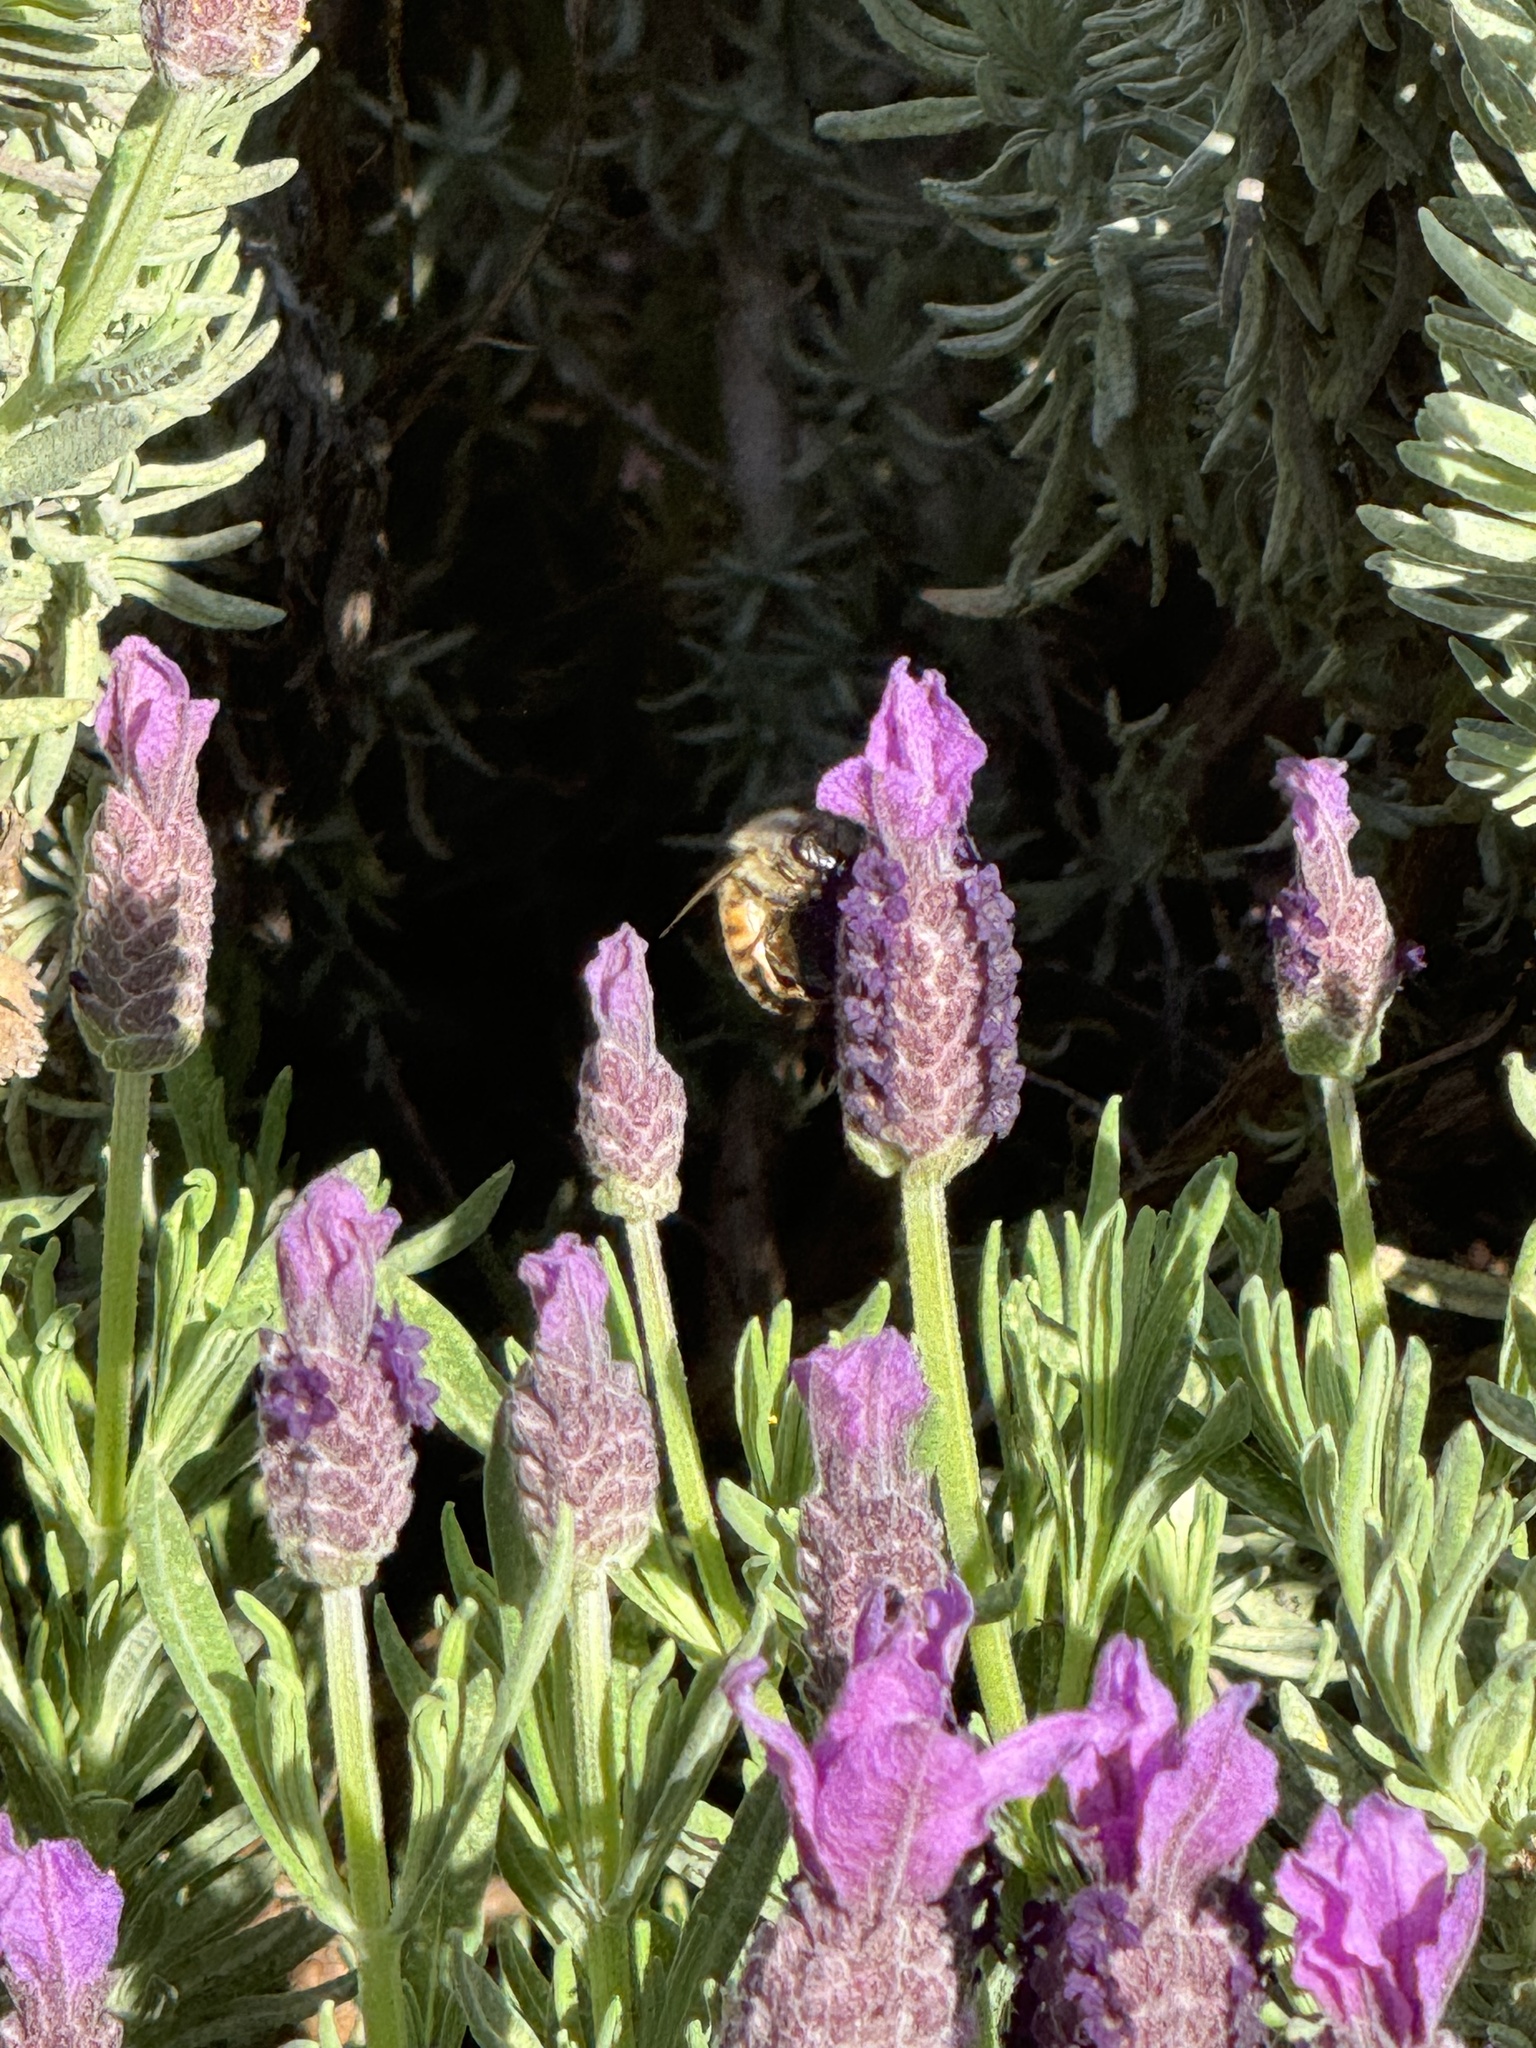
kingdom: Animalia
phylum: Arthropoda
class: Insecta
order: Hymenoptera
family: Apidae
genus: Apis
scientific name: Apis mellifera
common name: Honey bee
